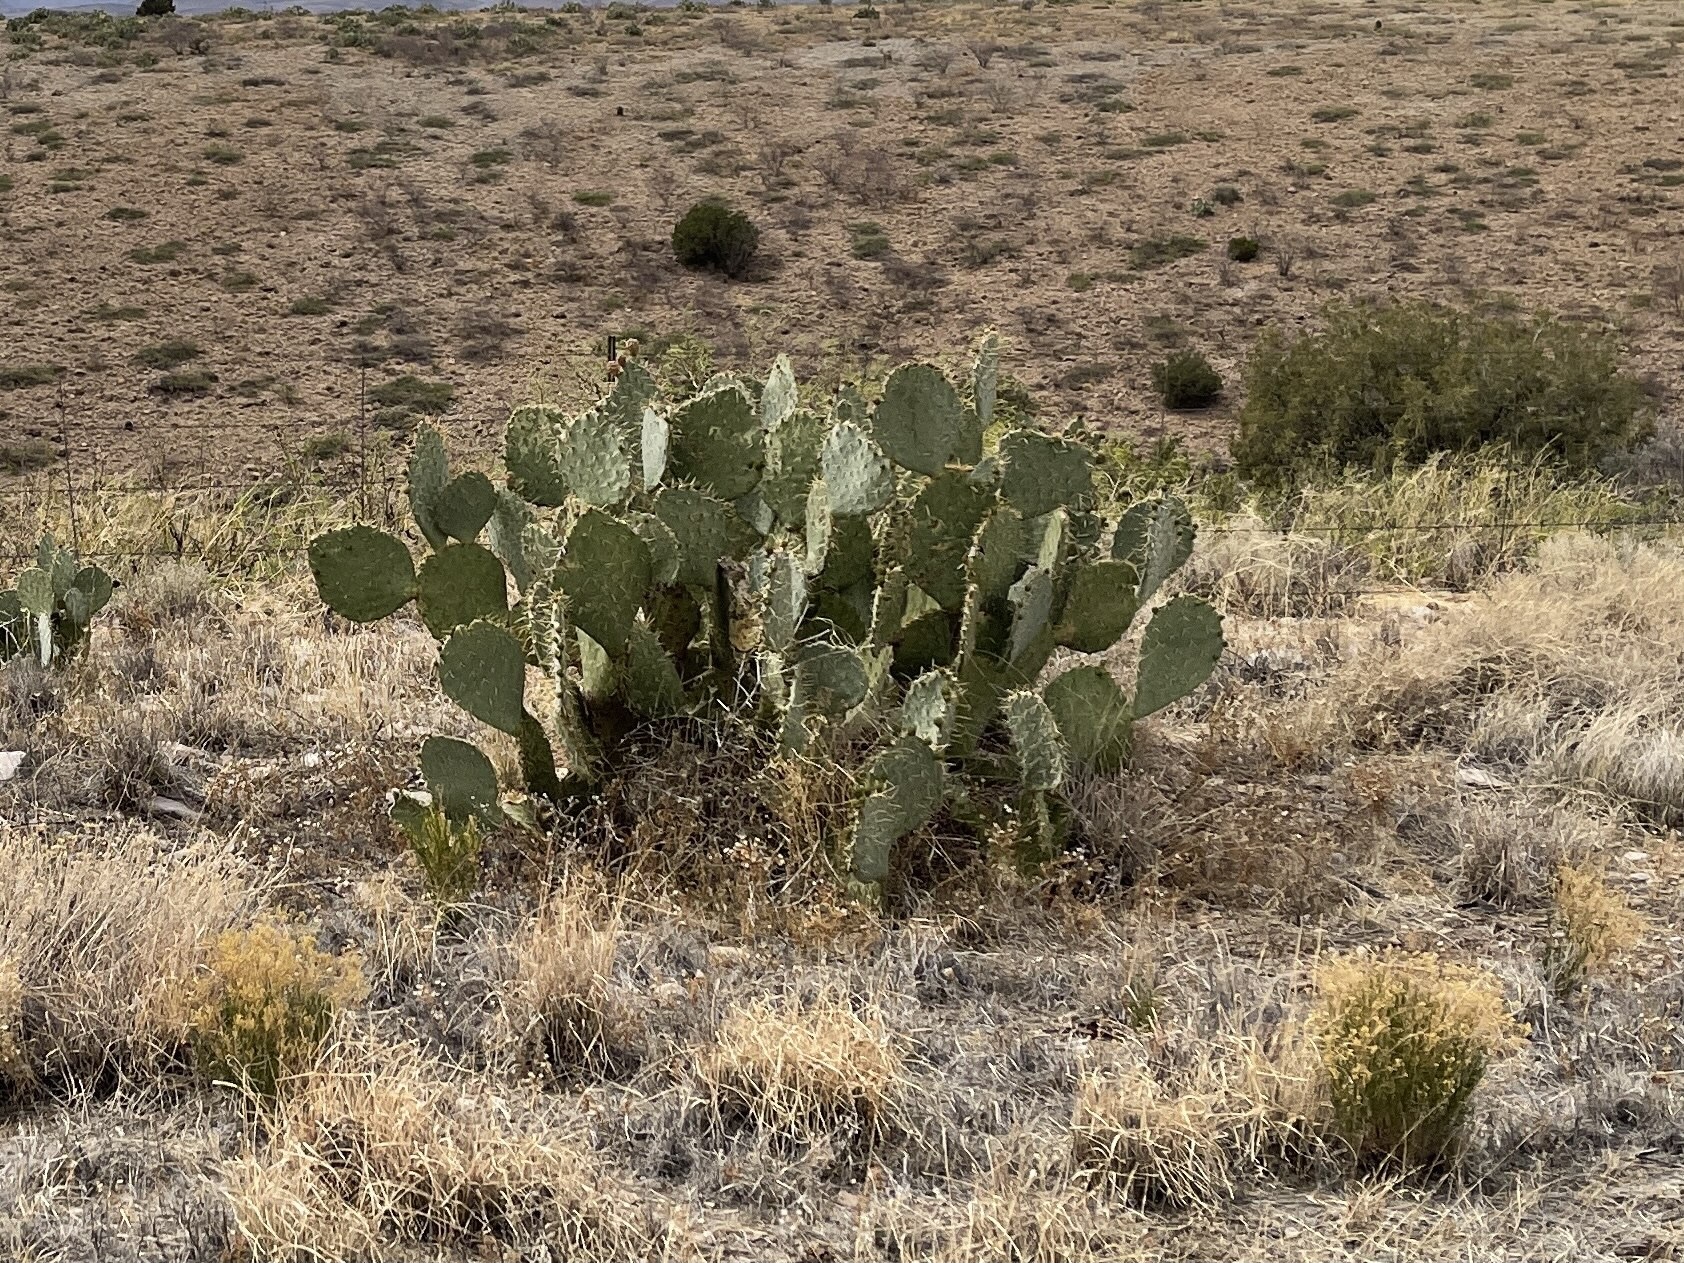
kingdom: Plantae
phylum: Tracheophyta
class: Magnoliopsida
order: Caryophyllales
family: Cactaceae
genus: Opuntia
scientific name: Opuntia engelmannii
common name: Cactus-apple
